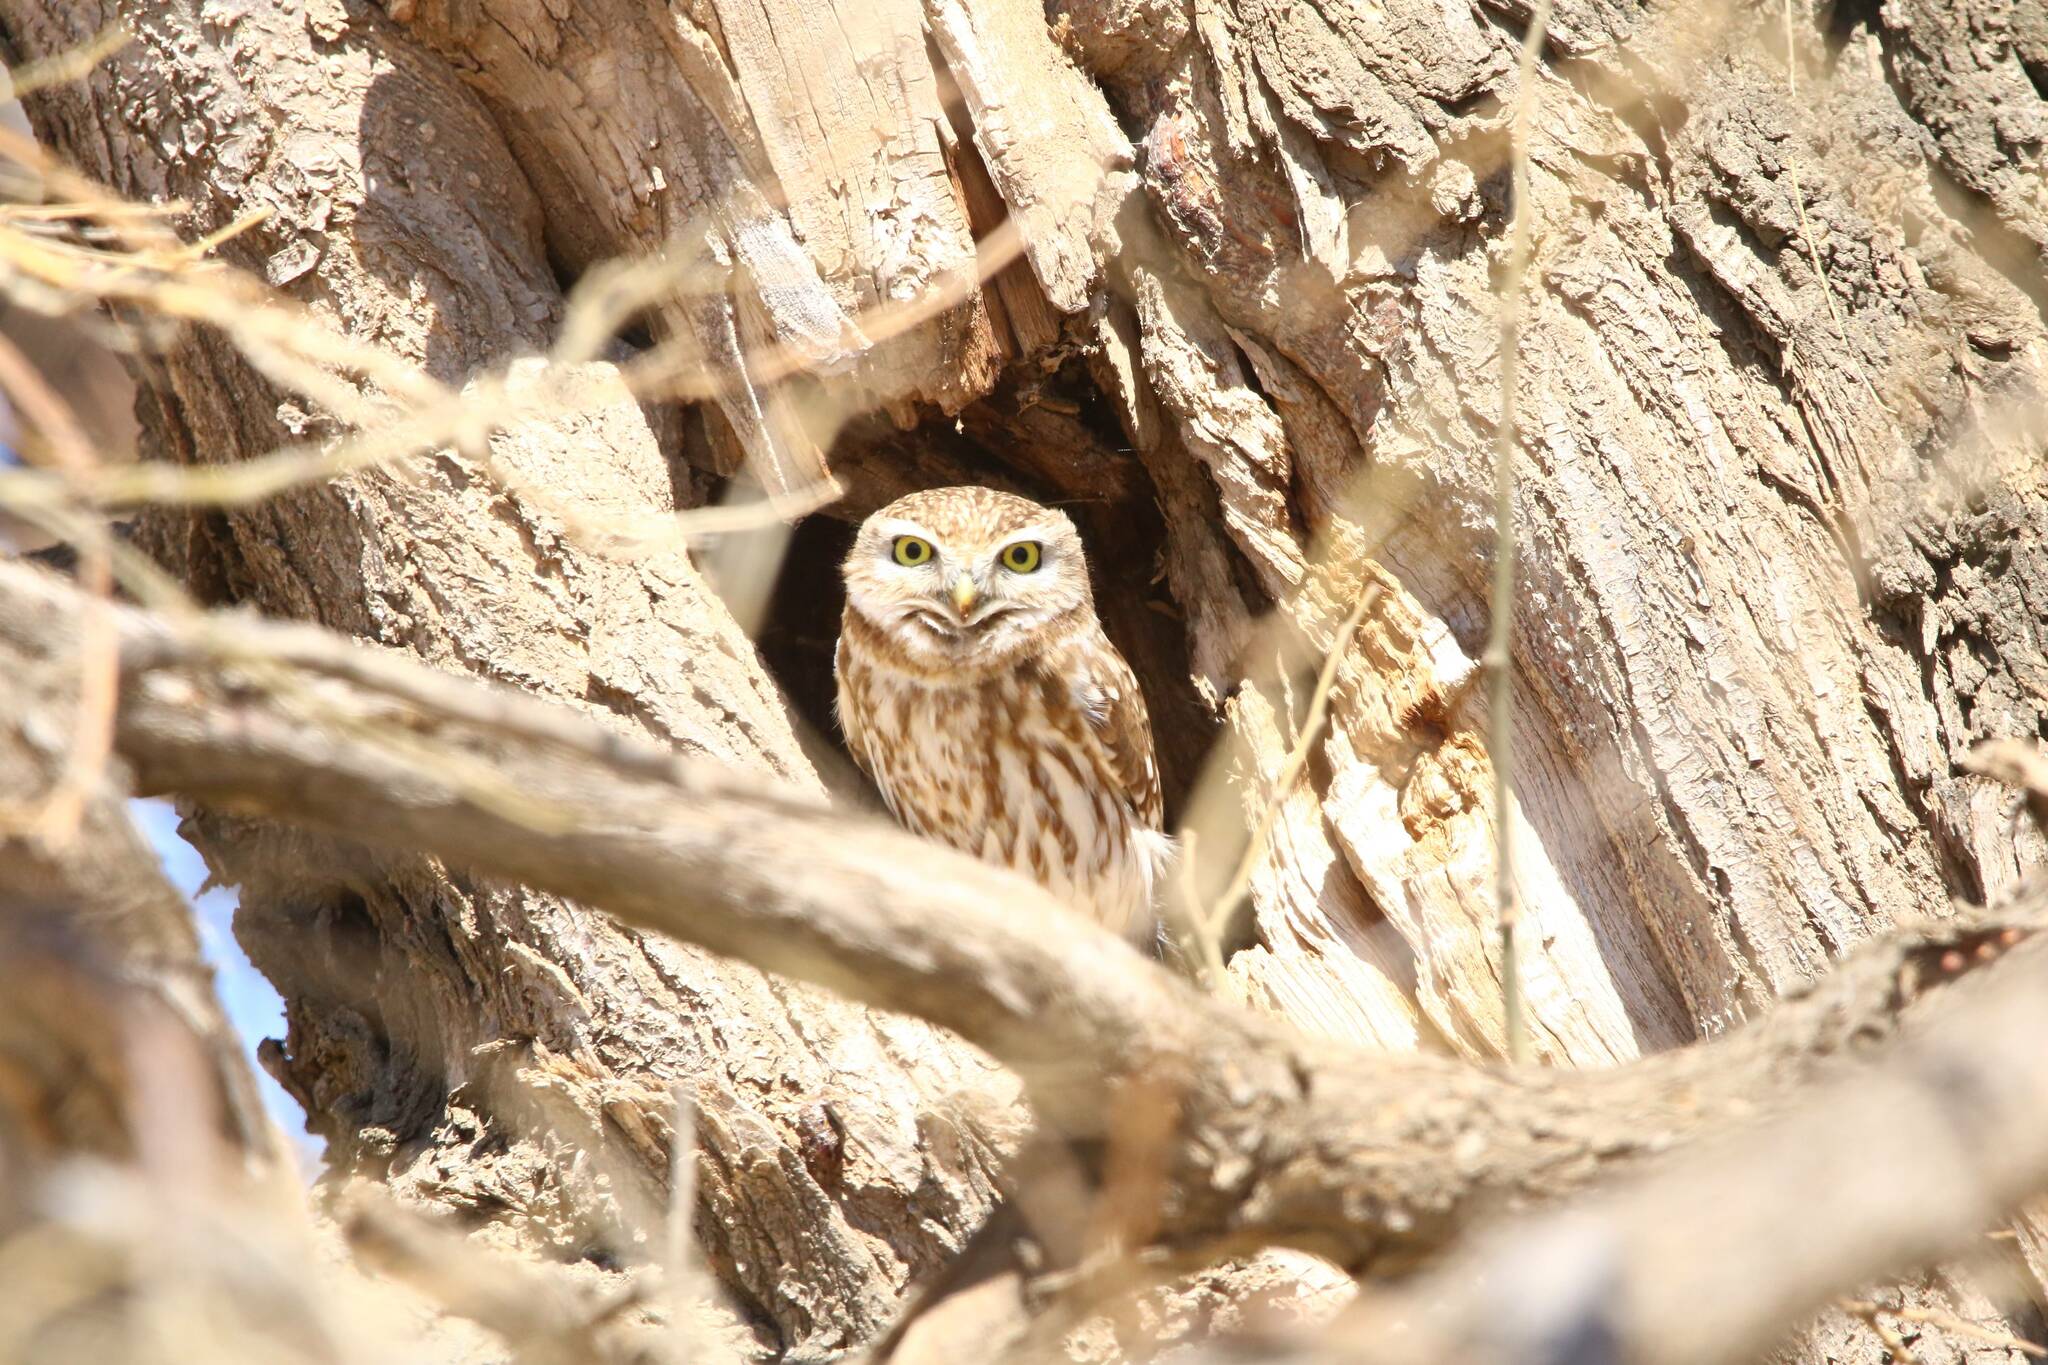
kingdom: Animalia
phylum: Chordata
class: Aves
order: Strigiformes
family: Strigidae
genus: Athene
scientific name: Athene noctua
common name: Little owl
